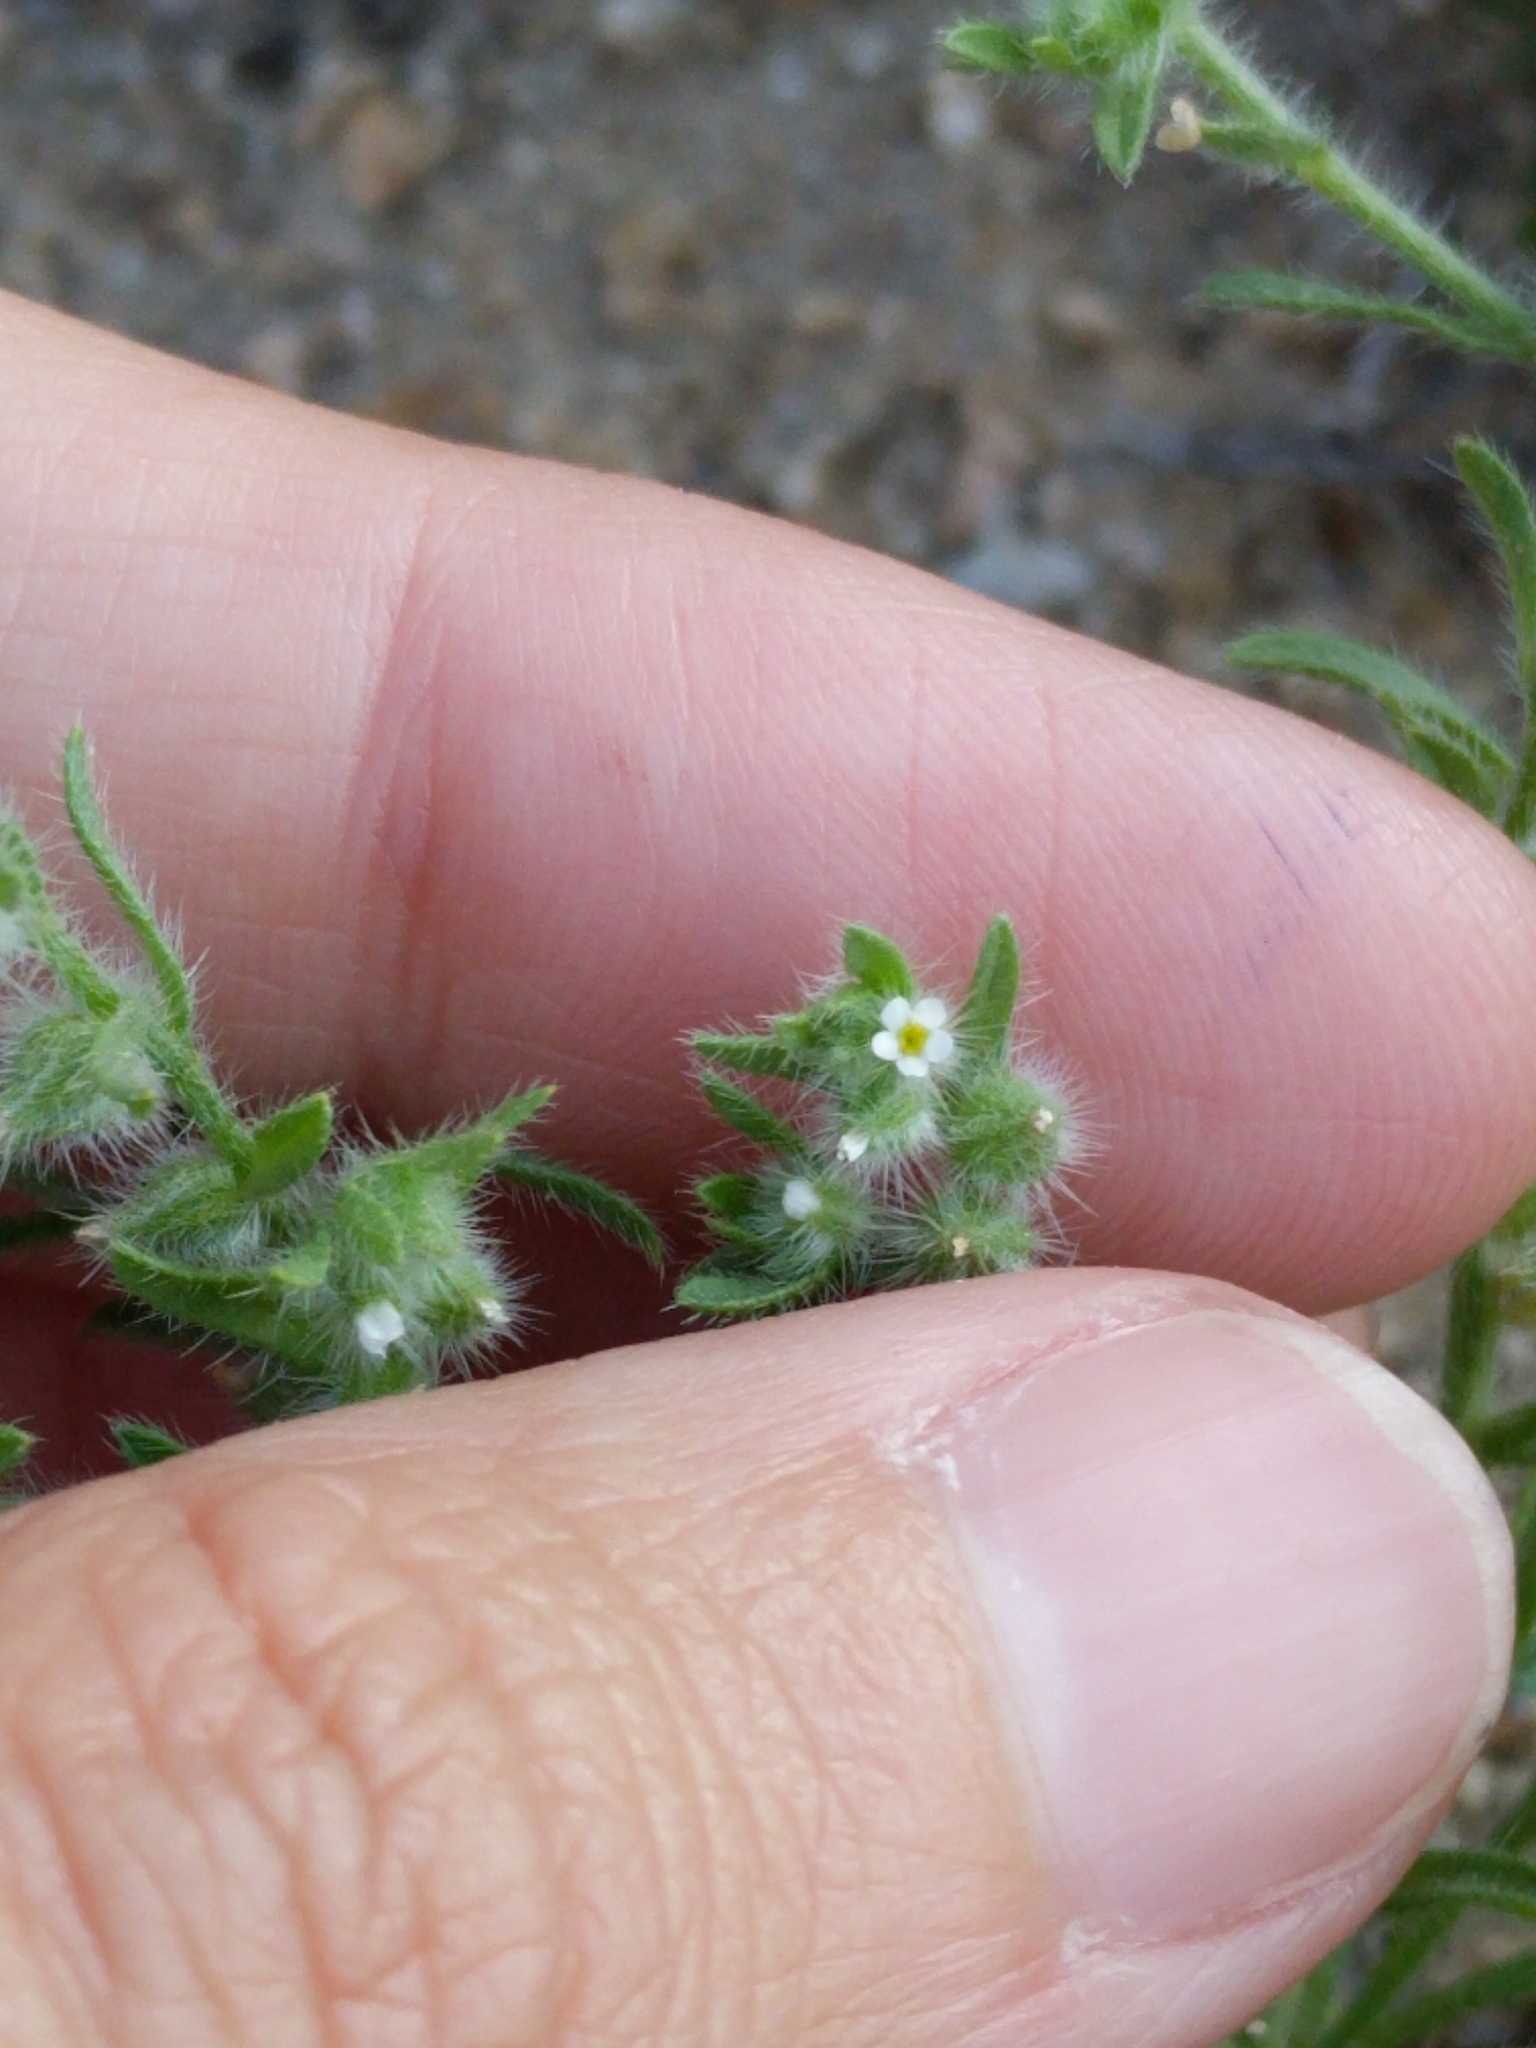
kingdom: Plantae
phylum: Tracheophyta
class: Magnoliopsida
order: Boraginales
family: Boraginaceae
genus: Johnstonella
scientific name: Johnstonella mexicana
